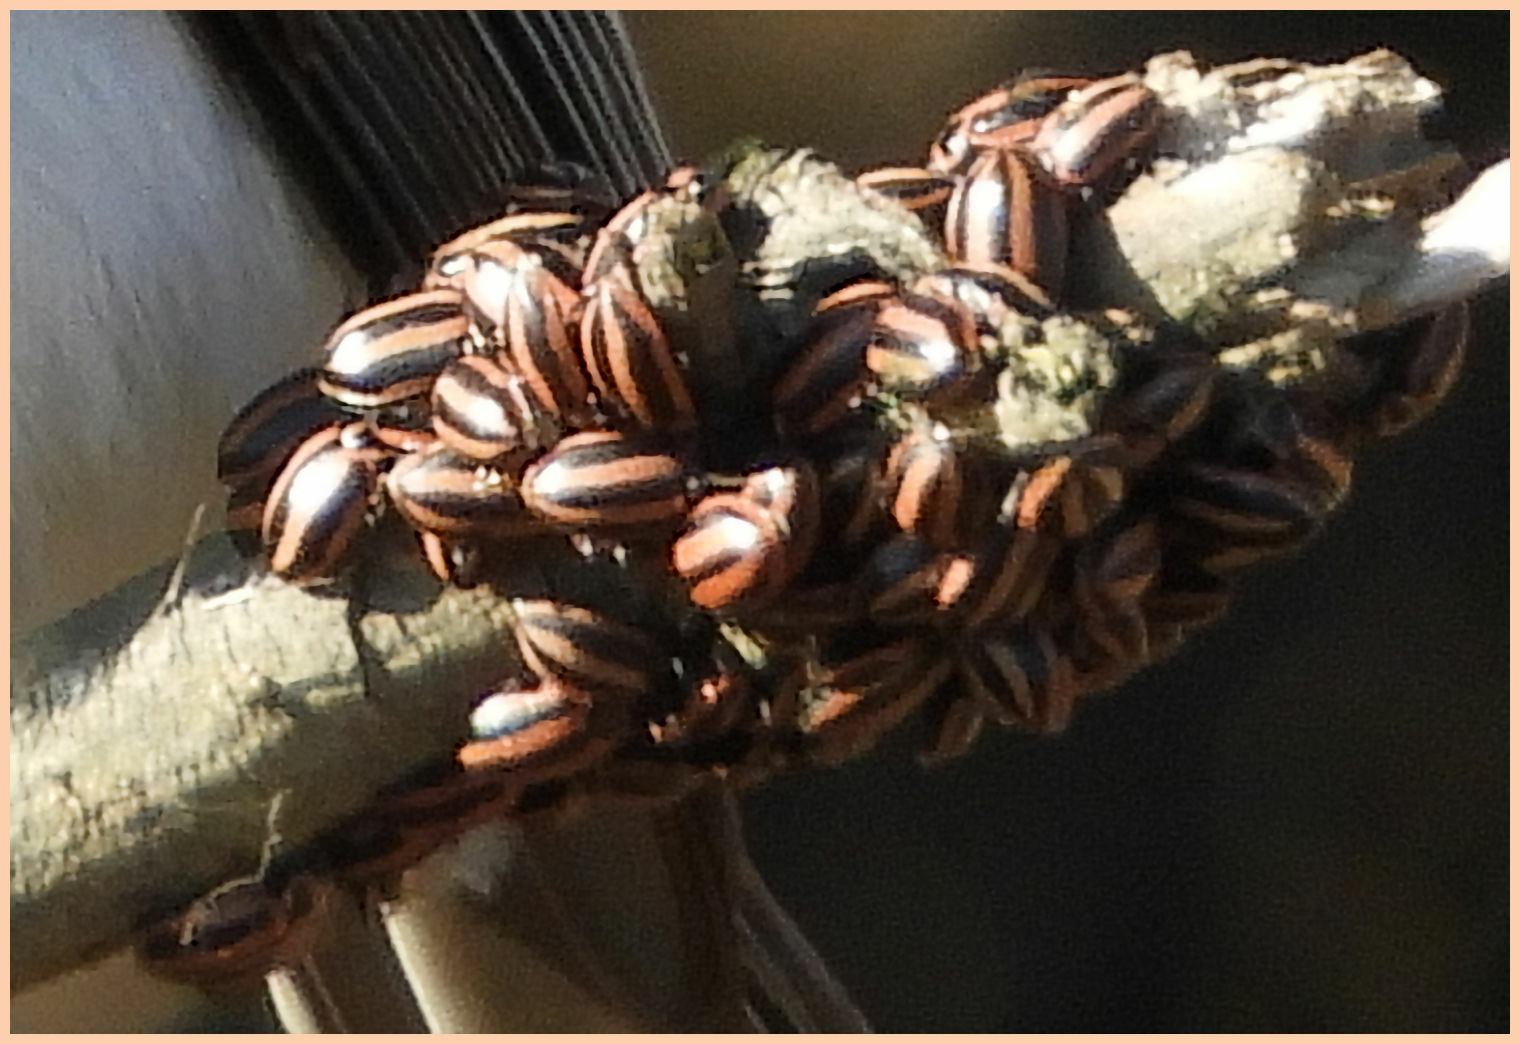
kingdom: Animalia
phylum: Arthropoda
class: Insecta
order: Coleoptera
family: Coccinellidae
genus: Paranaemia
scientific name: Paranaemia vittigera
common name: Ladybird beetle
